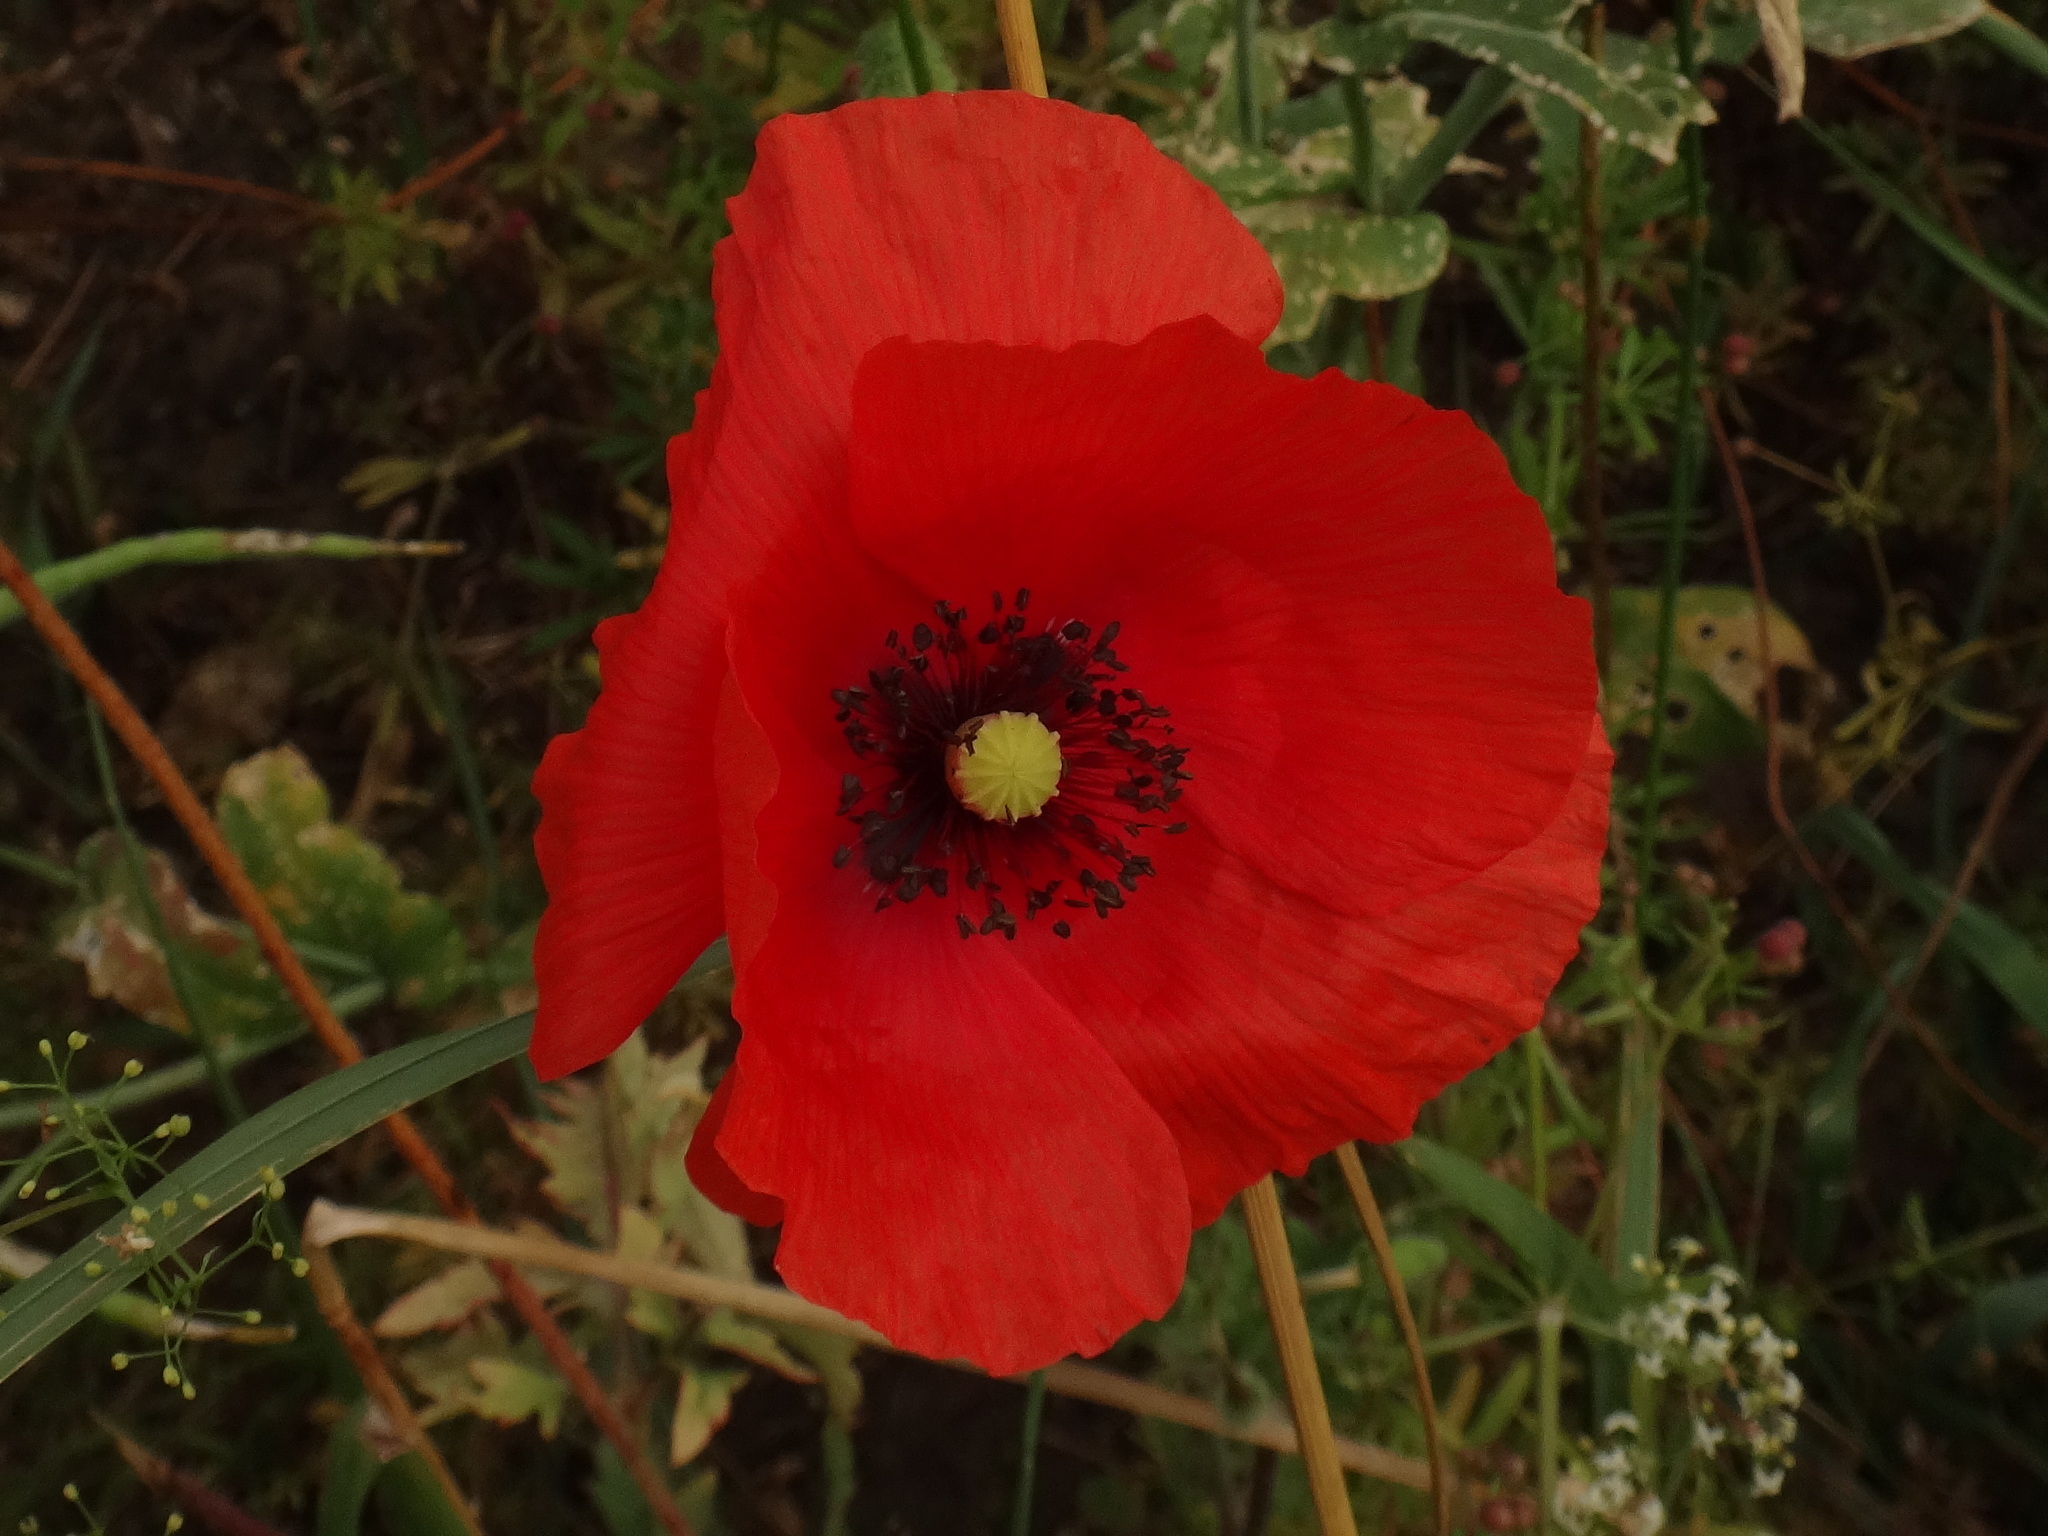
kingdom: Plantae
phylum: Tracheophyta
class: Magnoliopsida
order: Ranunculales
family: Papaveraceae
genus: Papaver
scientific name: Papaver rhoeas
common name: Corn poppy
